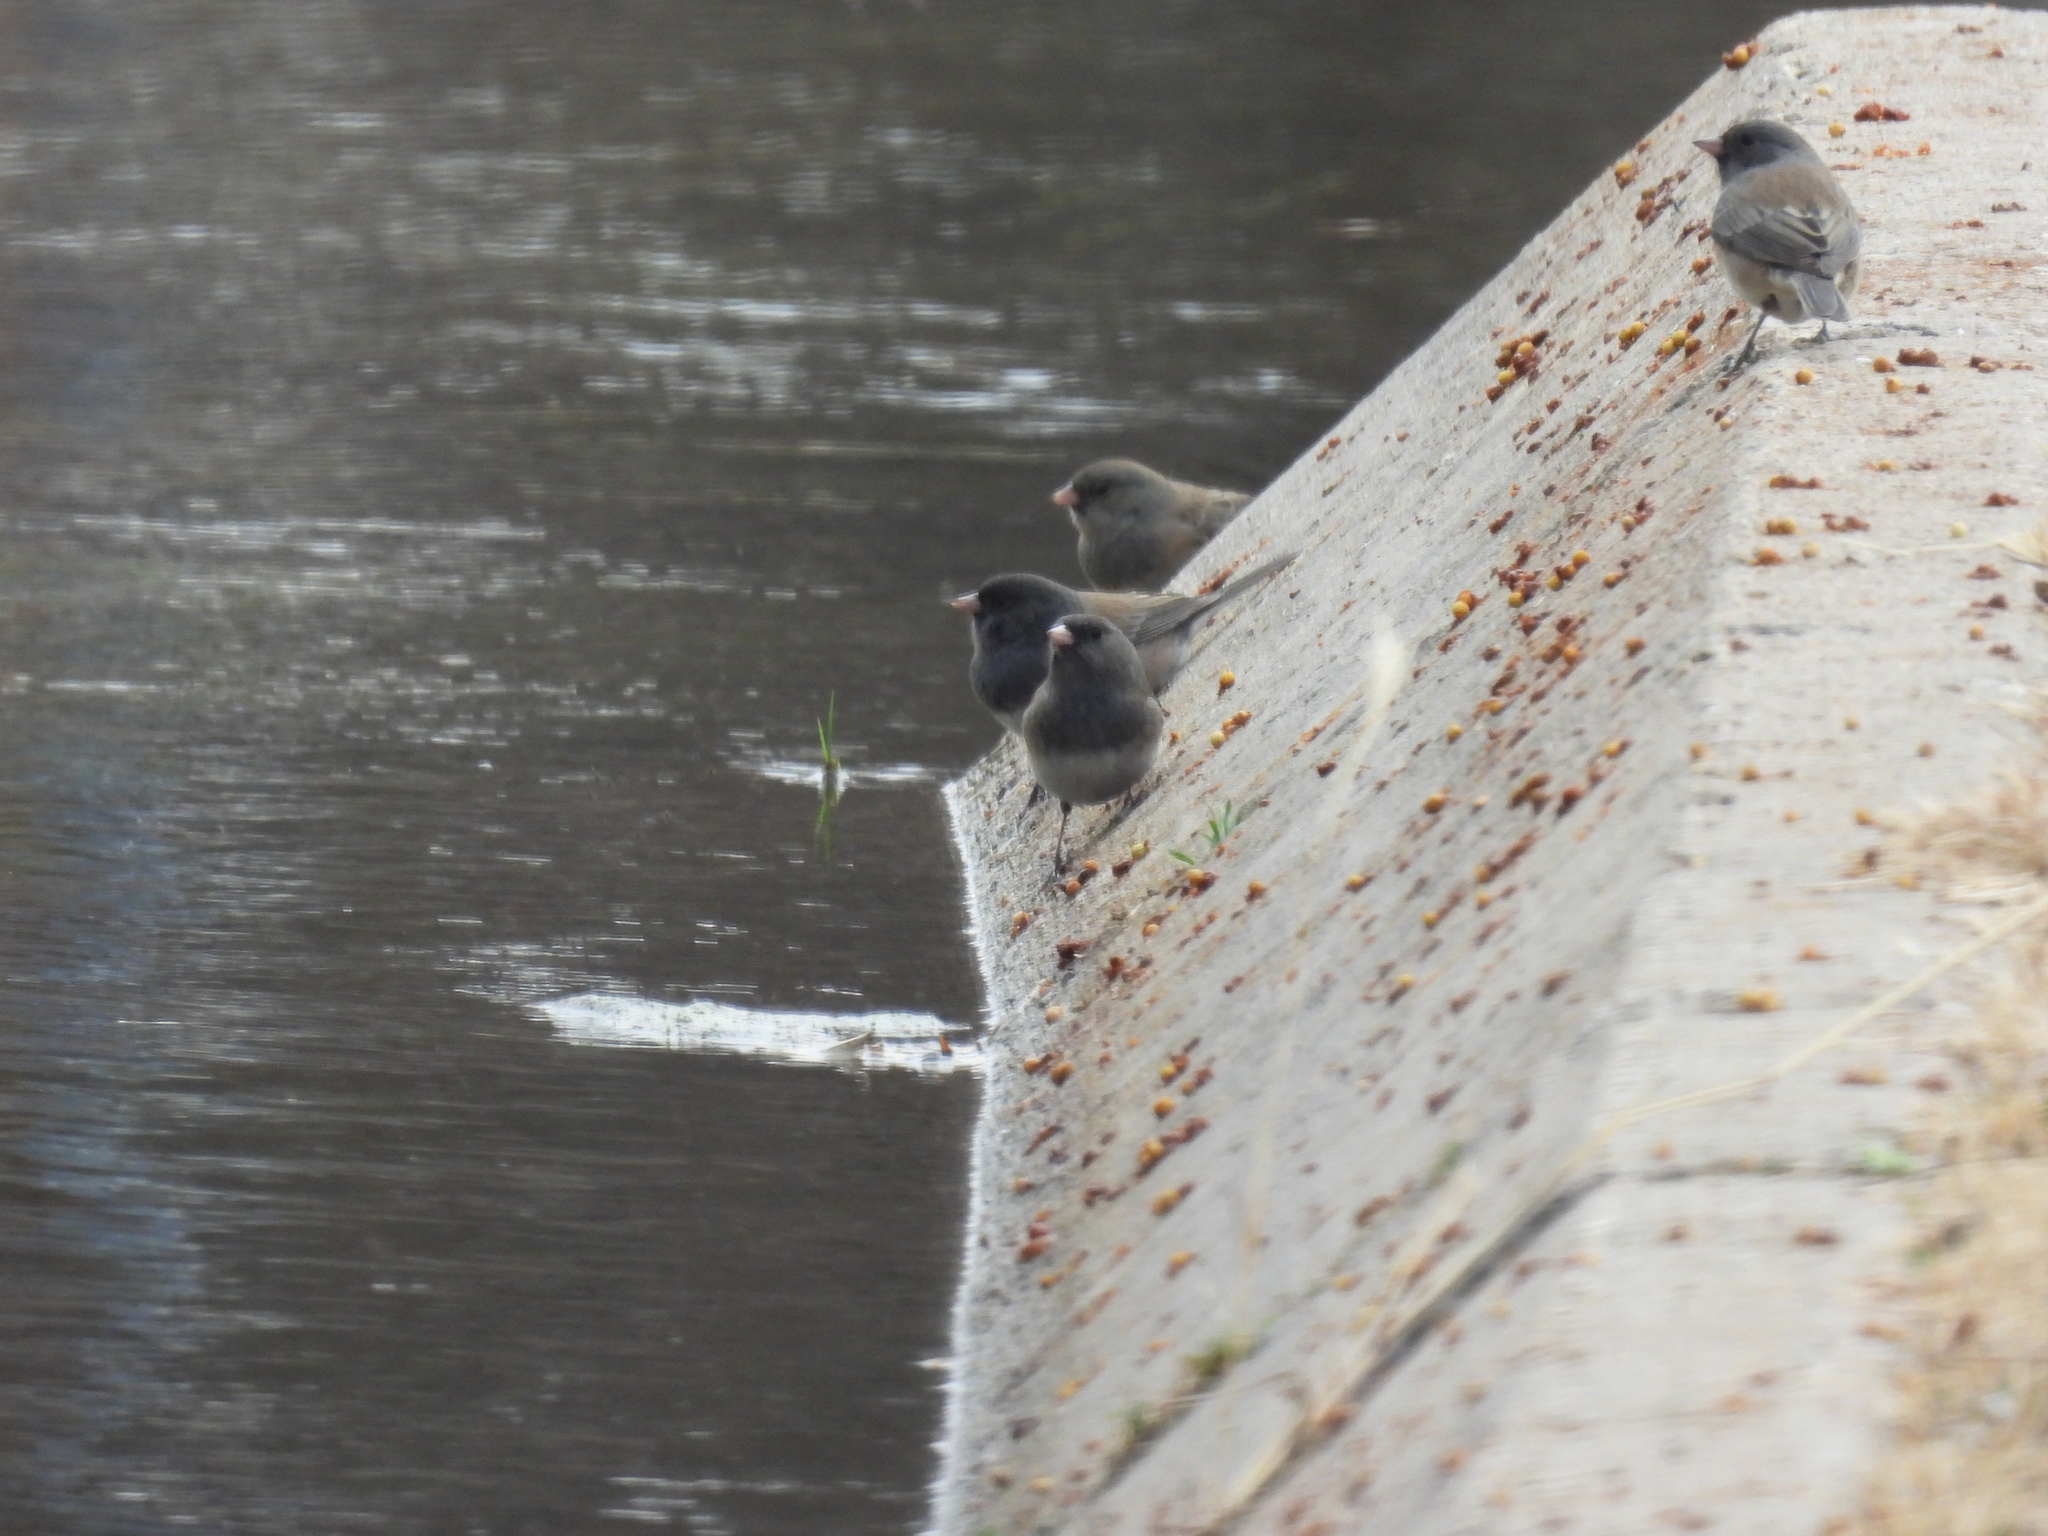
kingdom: Animalia
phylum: Chordata
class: Aves
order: Passeriformes
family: Passerellidae
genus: Junco
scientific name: Junco hyemalis
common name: Dark-eyed junco
